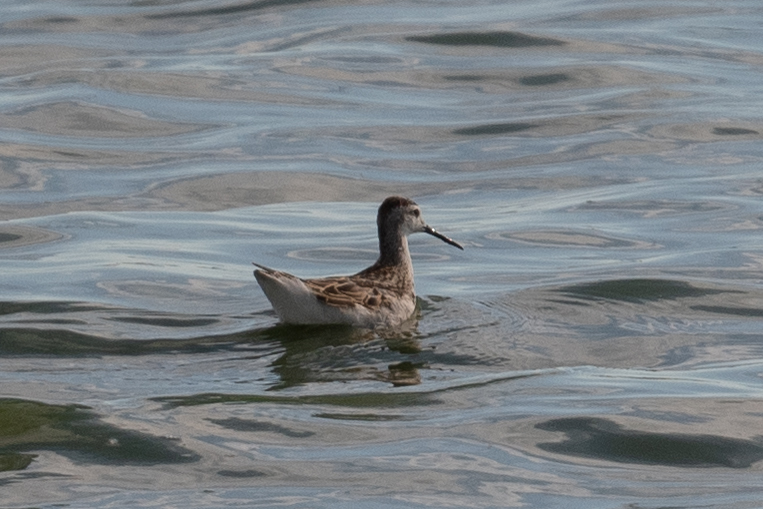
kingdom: Animalia
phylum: Chordata
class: Aves
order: Charadriiformes
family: Scolopacidae
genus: Phalaropus
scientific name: Phalaropus tricolor
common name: Wilson's phalarope
